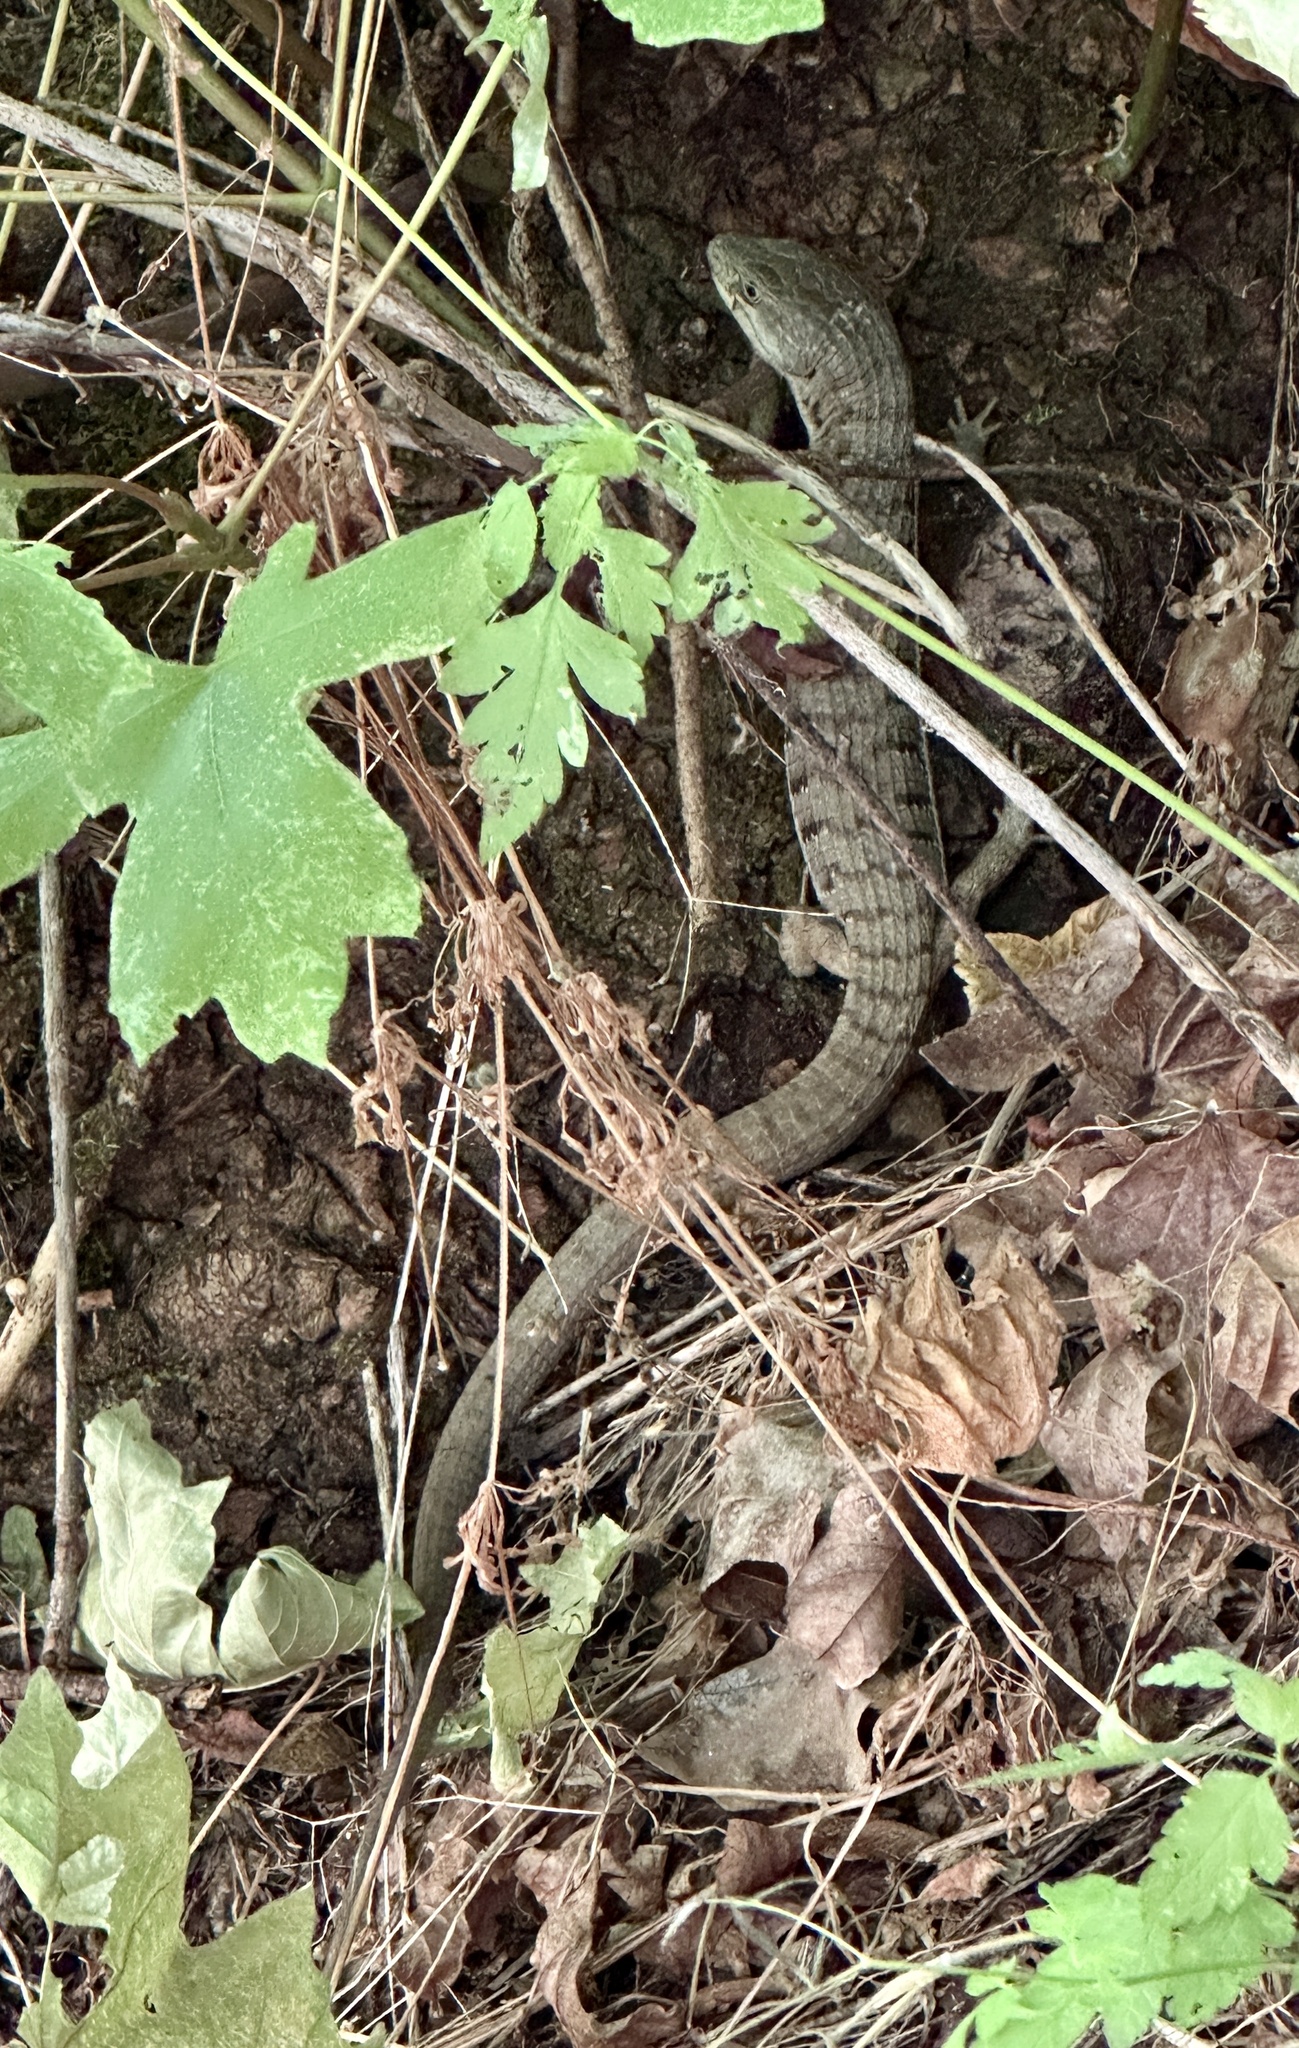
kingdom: Animalia
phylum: Chordata
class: Squamata
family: Anguidae
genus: Elgaria
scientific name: Elgaria multicarinata
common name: Southern alligator lizard
